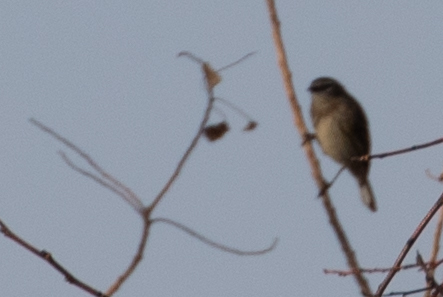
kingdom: Animalia
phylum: Chordata
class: Aves
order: Passeriformes
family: Parulidae
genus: Setophaga
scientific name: Setophaga coronata
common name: Myrtle warbler
